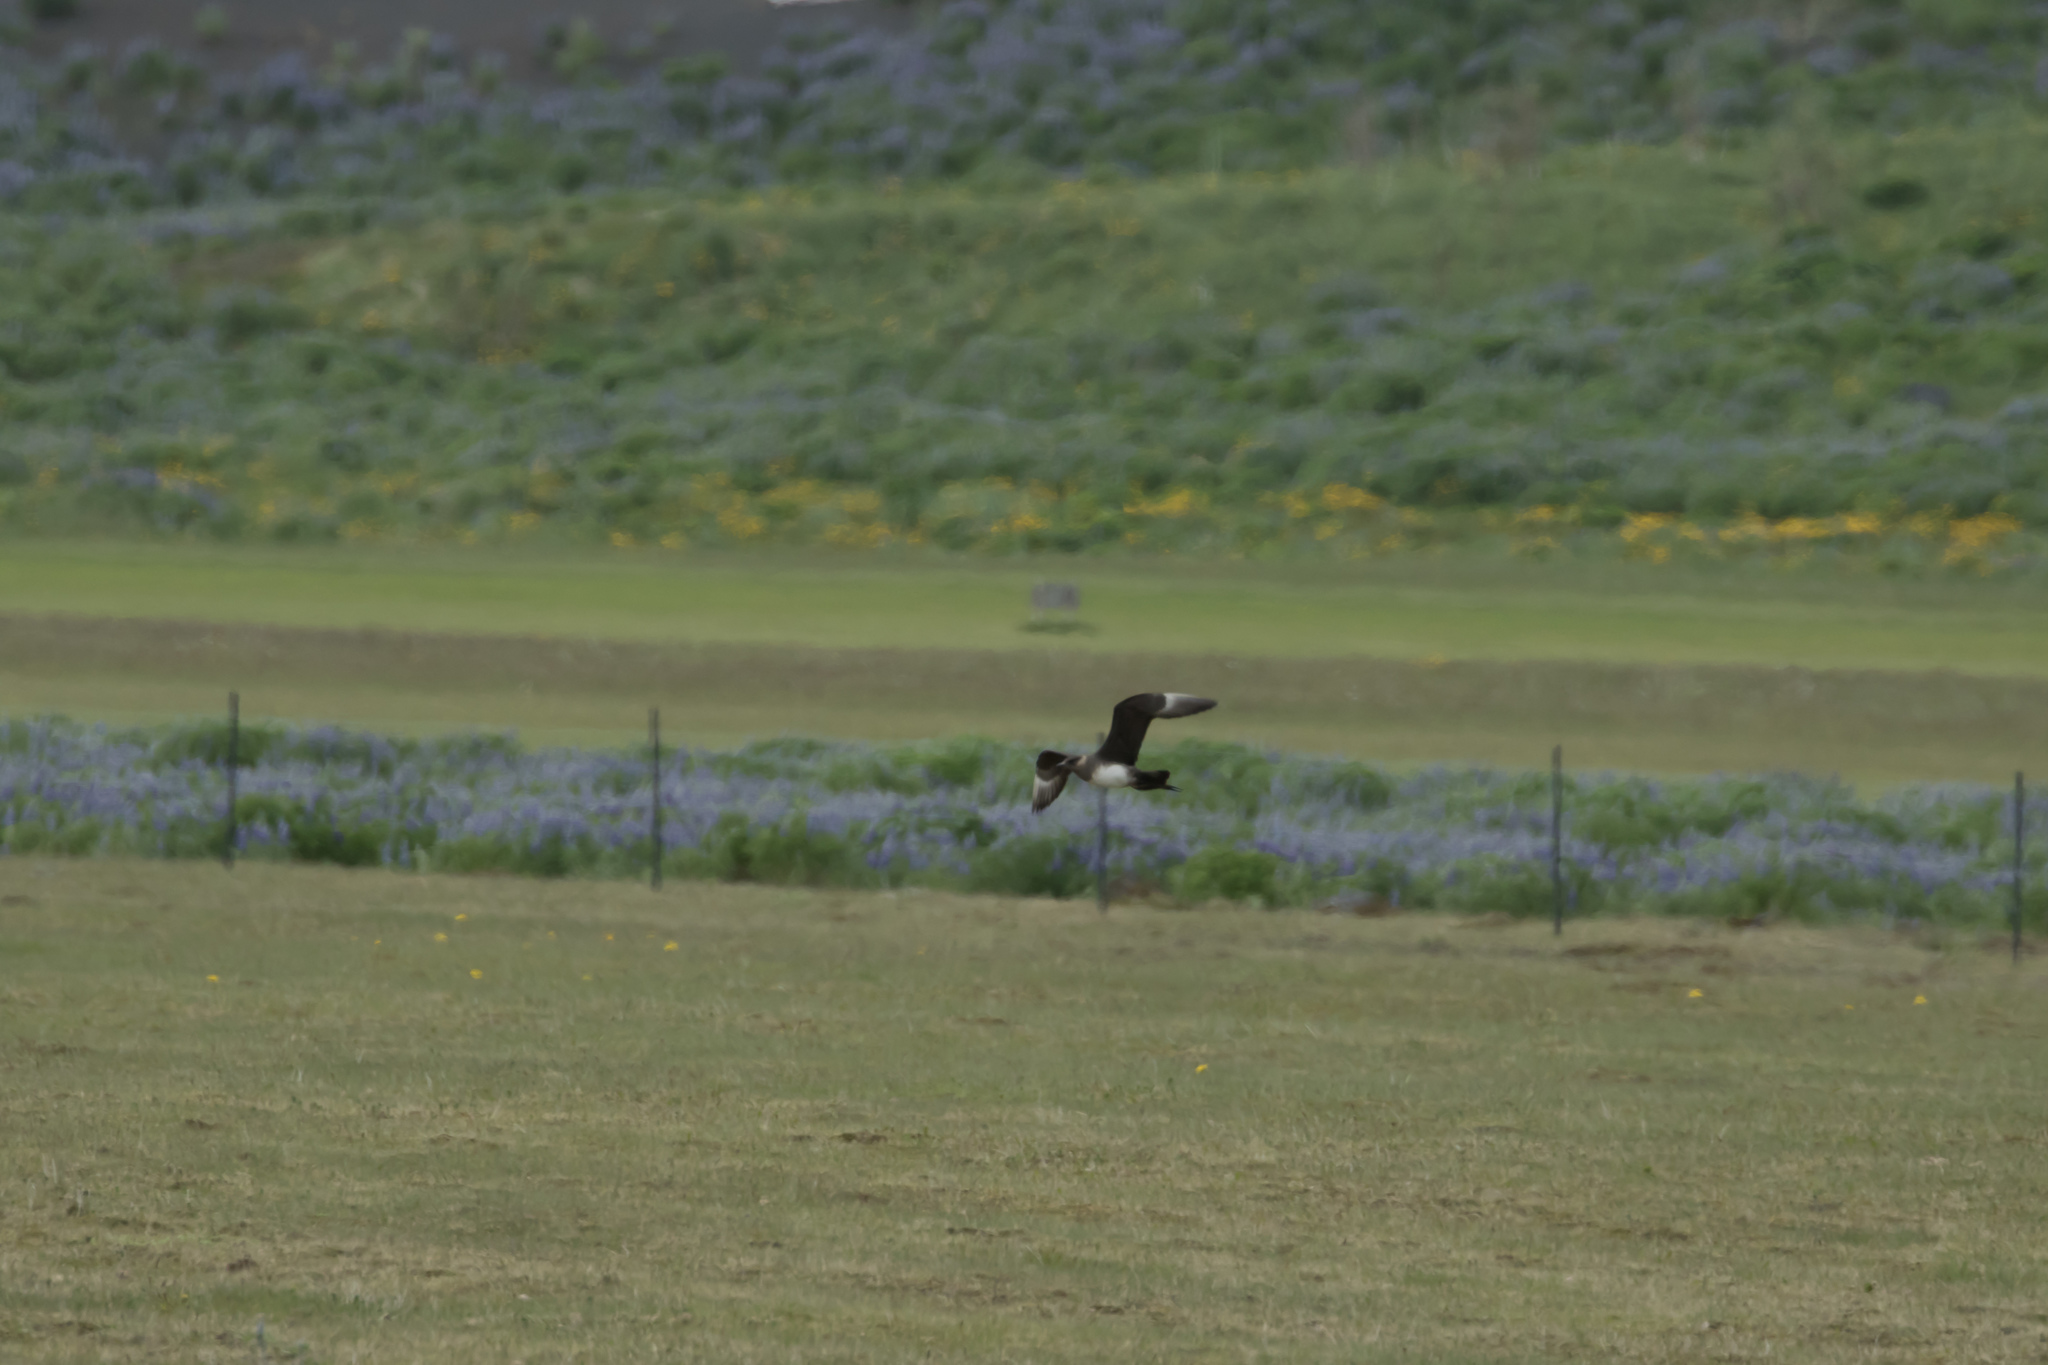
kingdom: Animalia
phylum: Chordata
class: Aves
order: Charadriiformes
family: Stercorariidae
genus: Stercorarius
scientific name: Stercorarius parasiticus
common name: Parasitic jaeger
